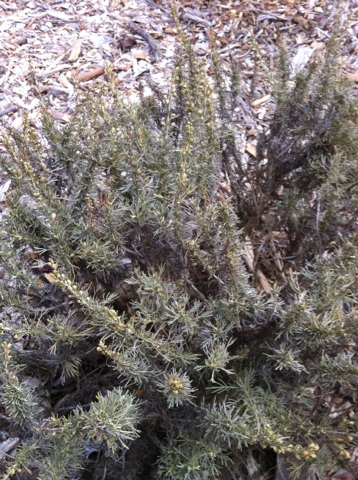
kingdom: Plantae
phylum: Tracheophyta
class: Magnoliopsida
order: Asterales
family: Asteraceae
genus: Artemisia
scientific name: Artemisia pycnocephala
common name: Coastal sagewort
